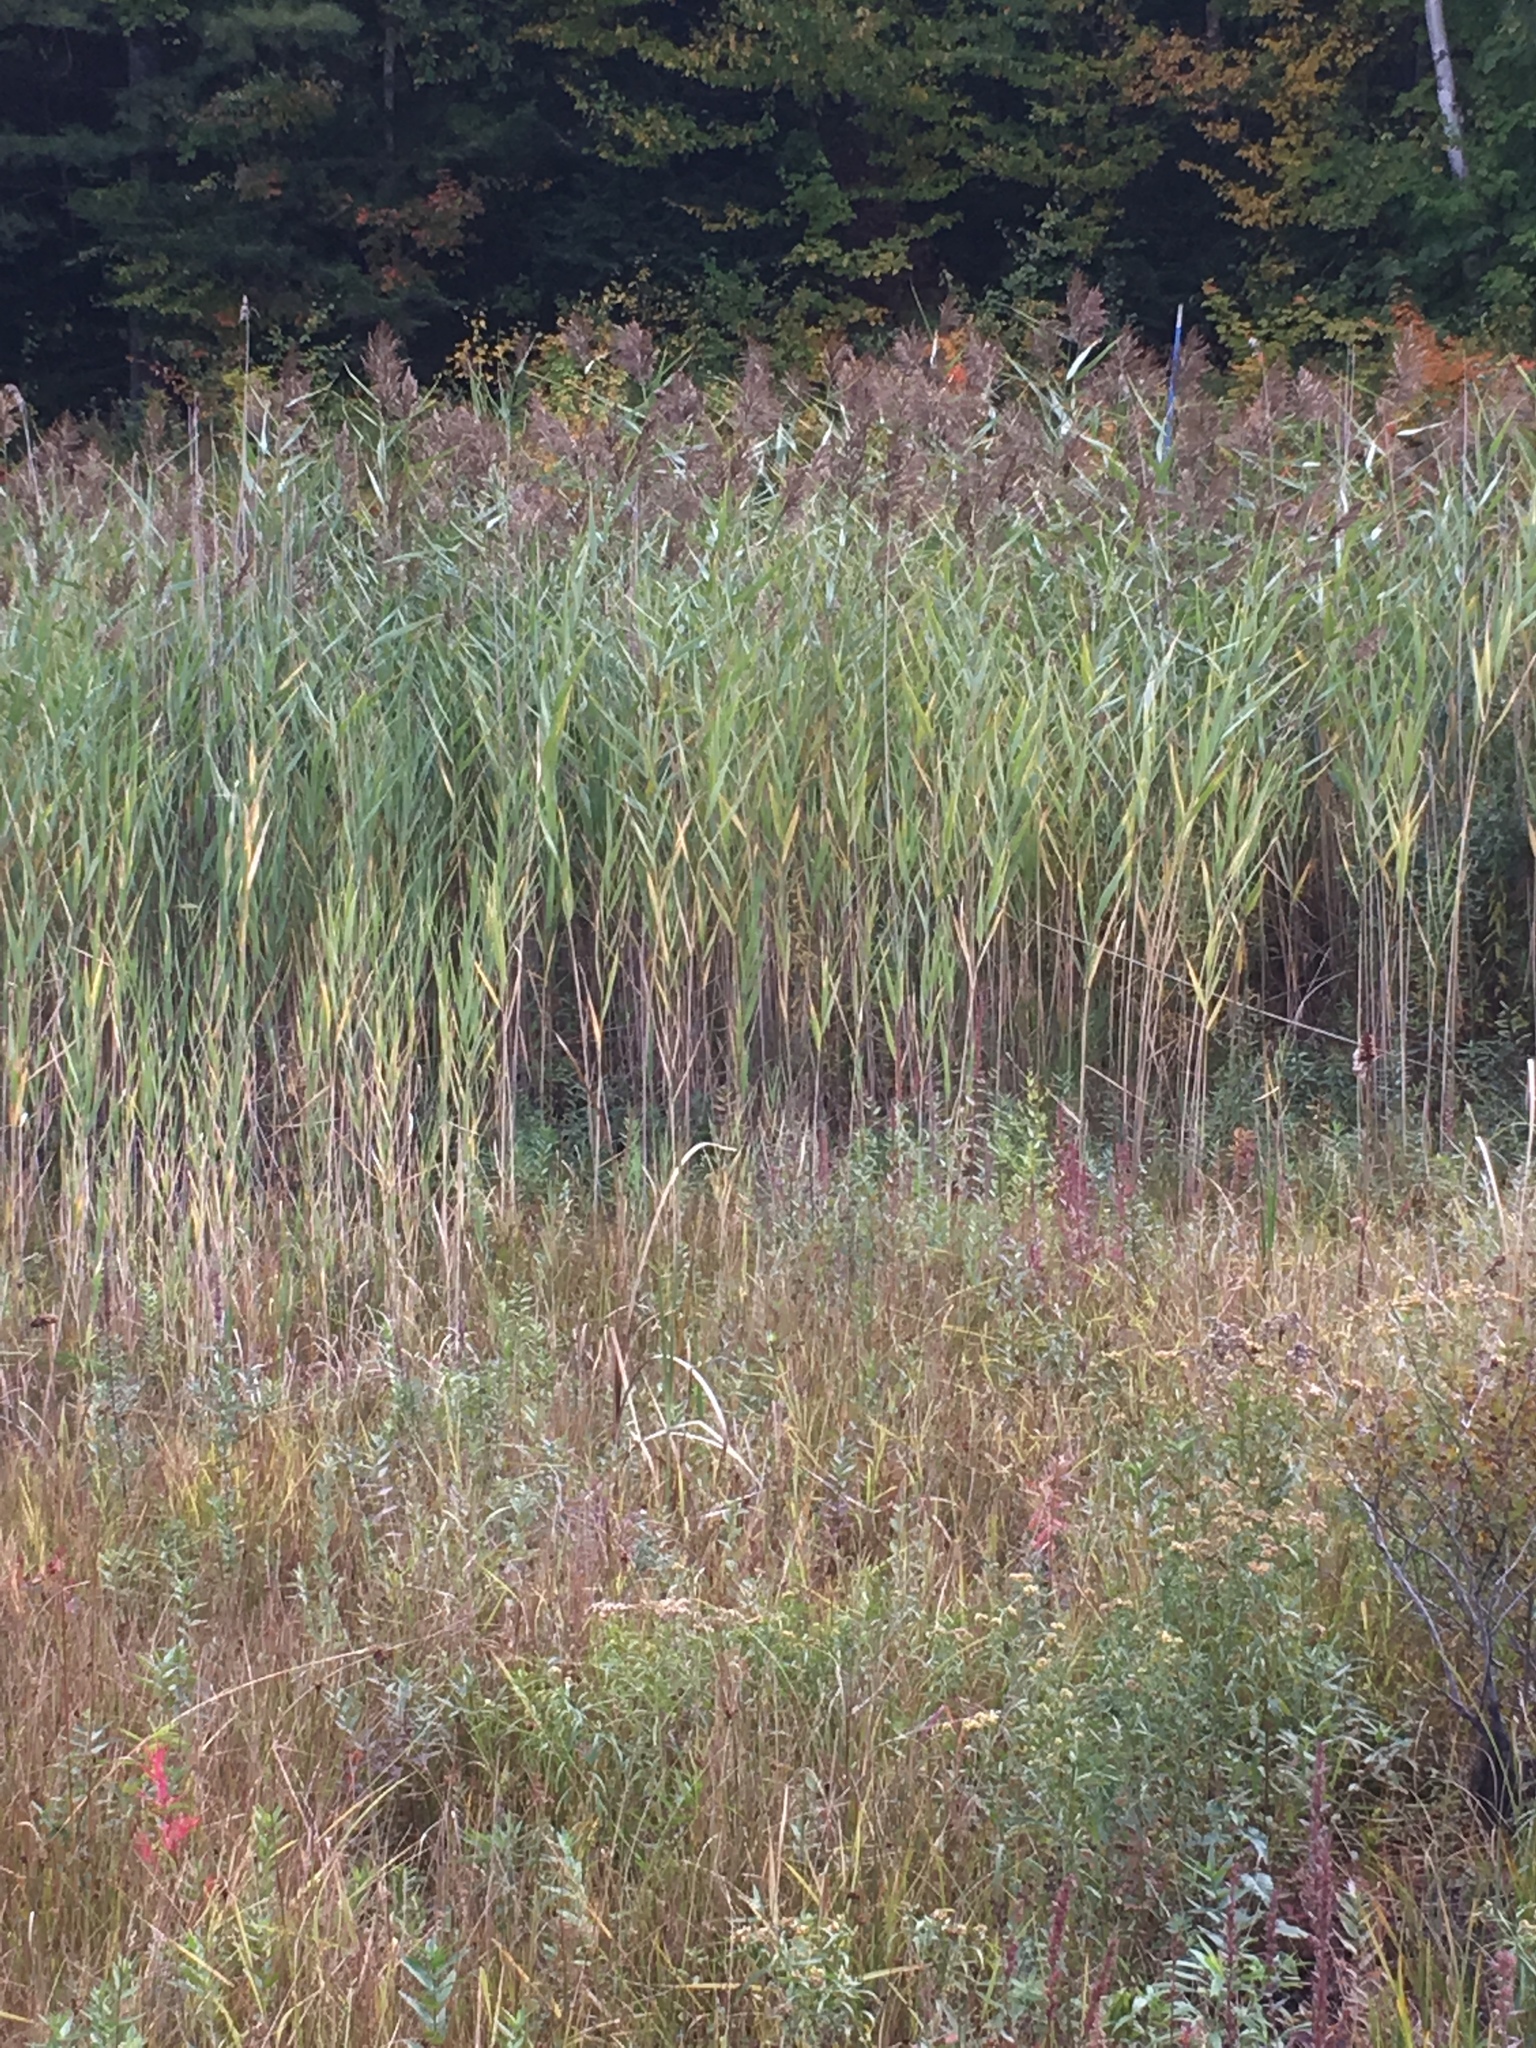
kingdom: Plantae
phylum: Tracheophyta
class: Liliopsida
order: Poales
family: Poaceae
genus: Phragmites
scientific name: Phragmites australis
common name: Common reed
